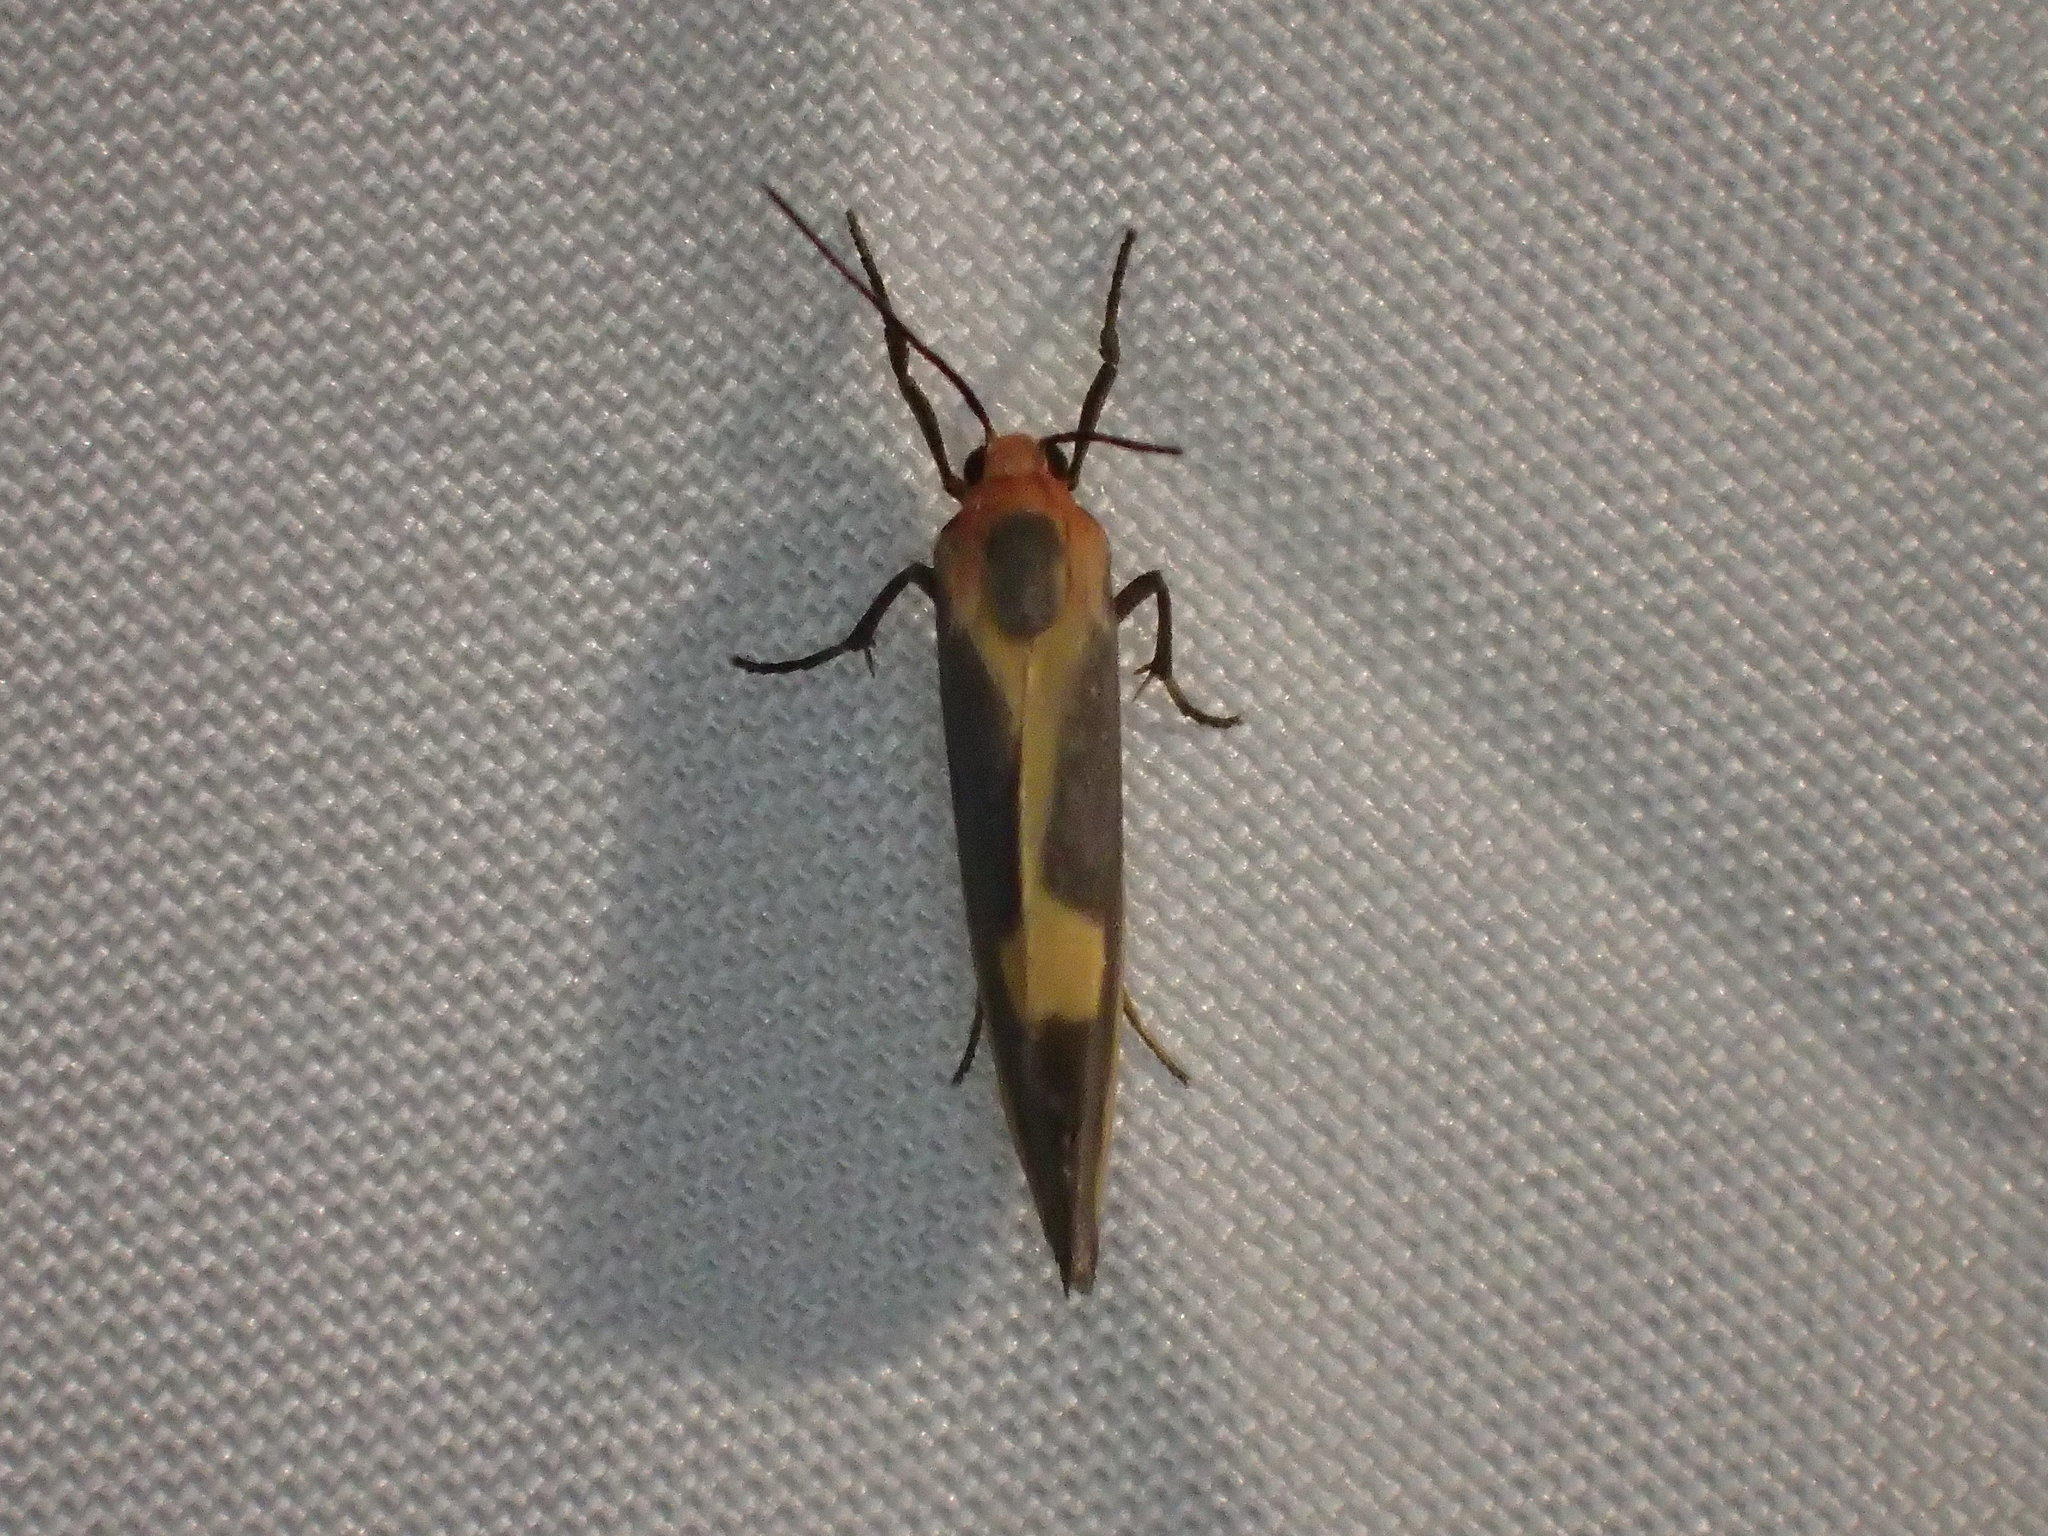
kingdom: Animalia
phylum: Arthropoda
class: Insecta
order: Lepidoptera
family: Erebidae
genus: Cisthene
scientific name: Cisthene plumbea
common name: Lead colored lichen moth
